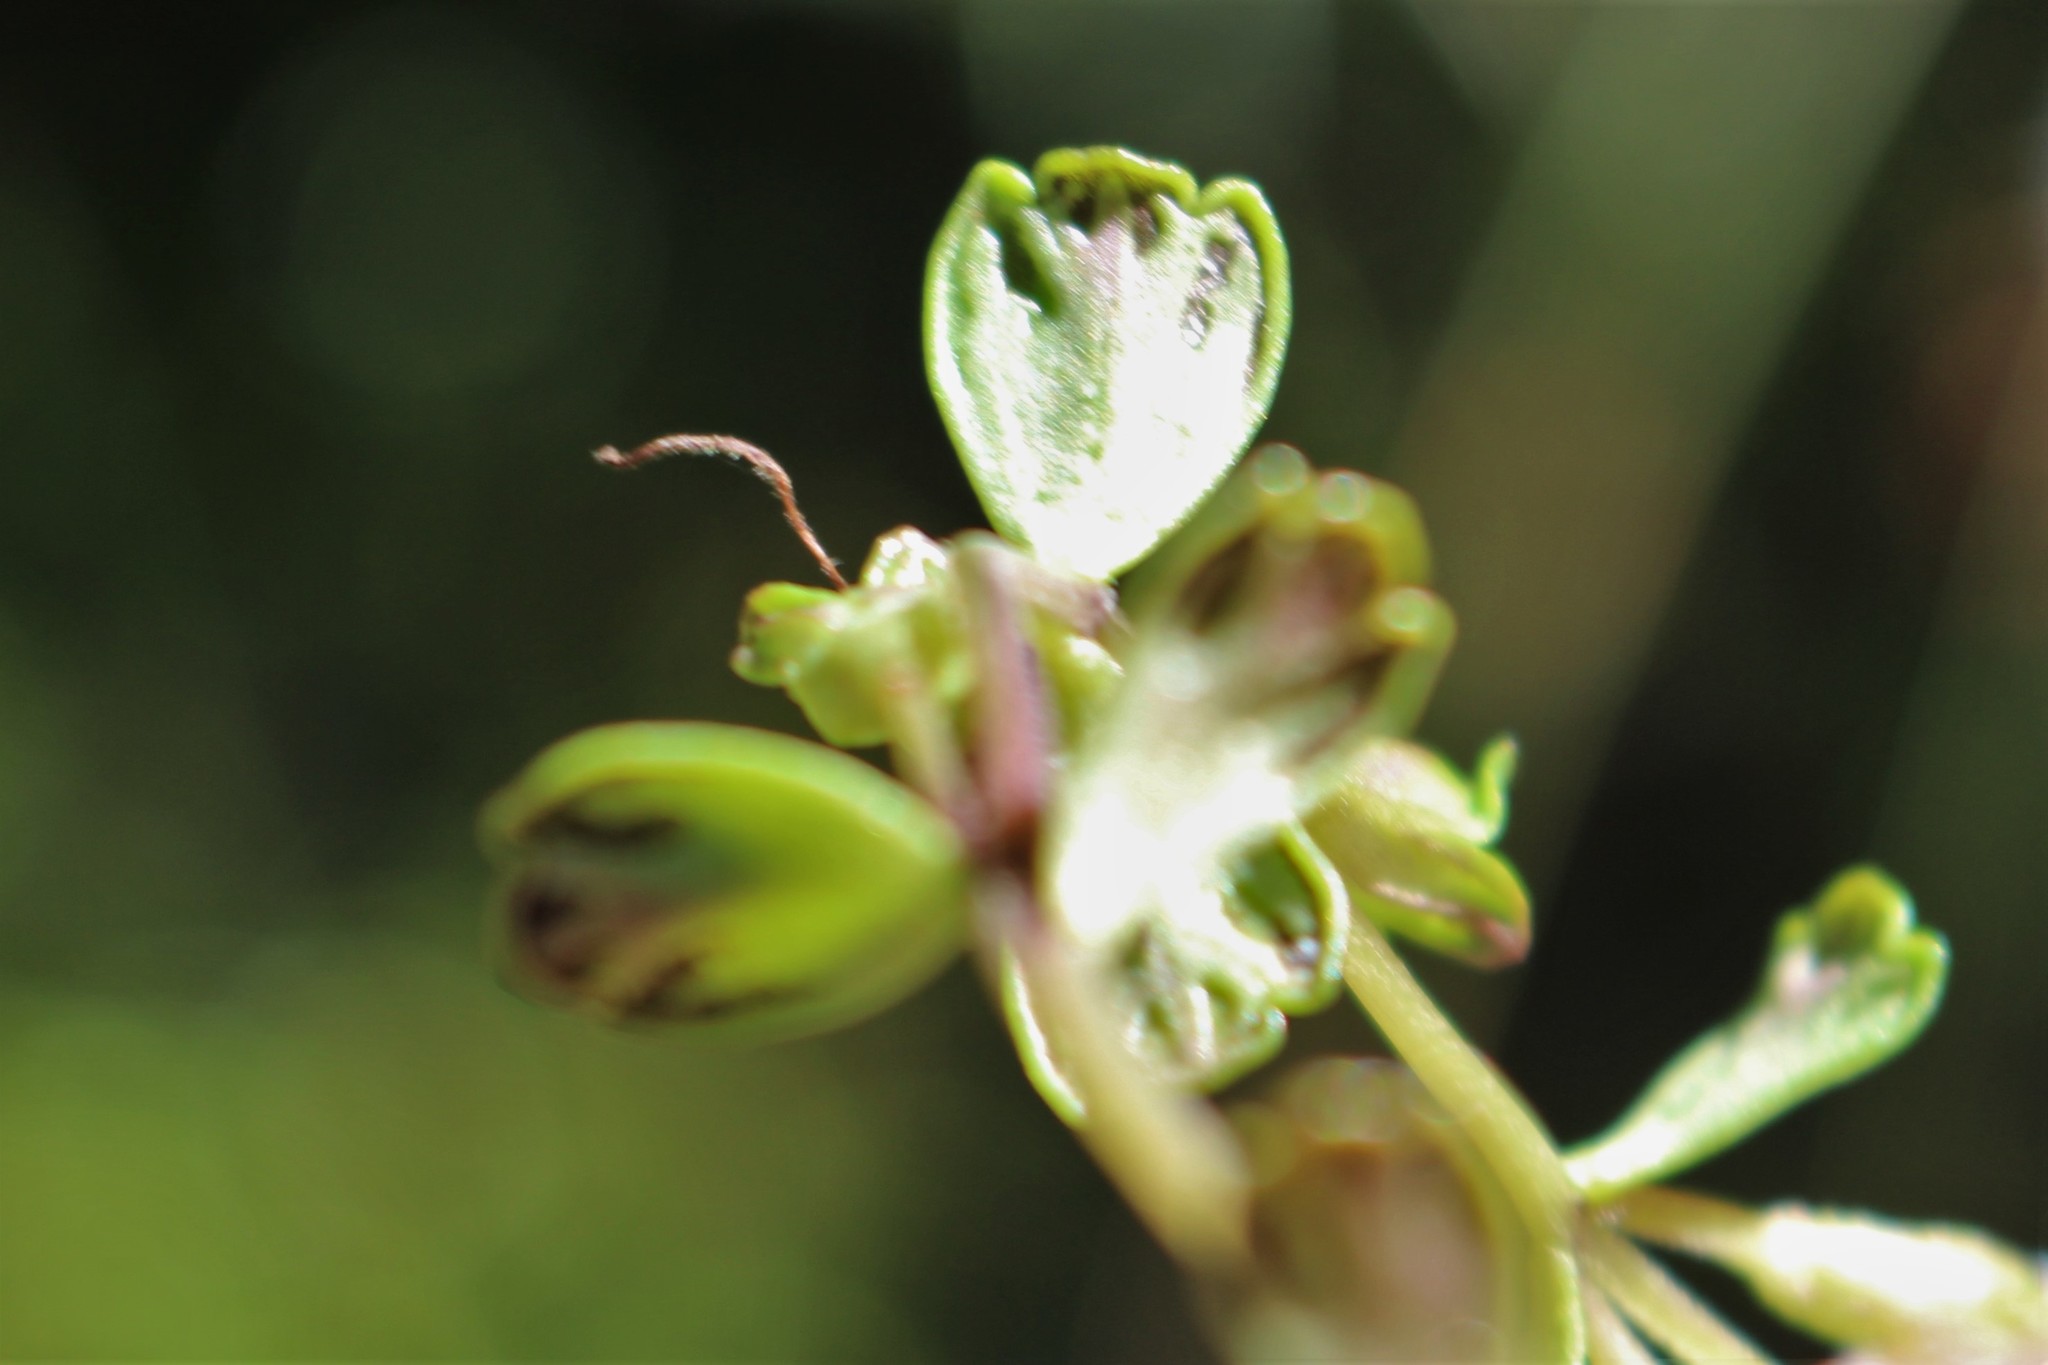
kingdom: Plantae
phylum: Tracheophyta
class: Magnoliopsida
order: Lamiales
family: Orobanchaceae
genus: Euphrasia
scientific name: Euphrasia petriei
